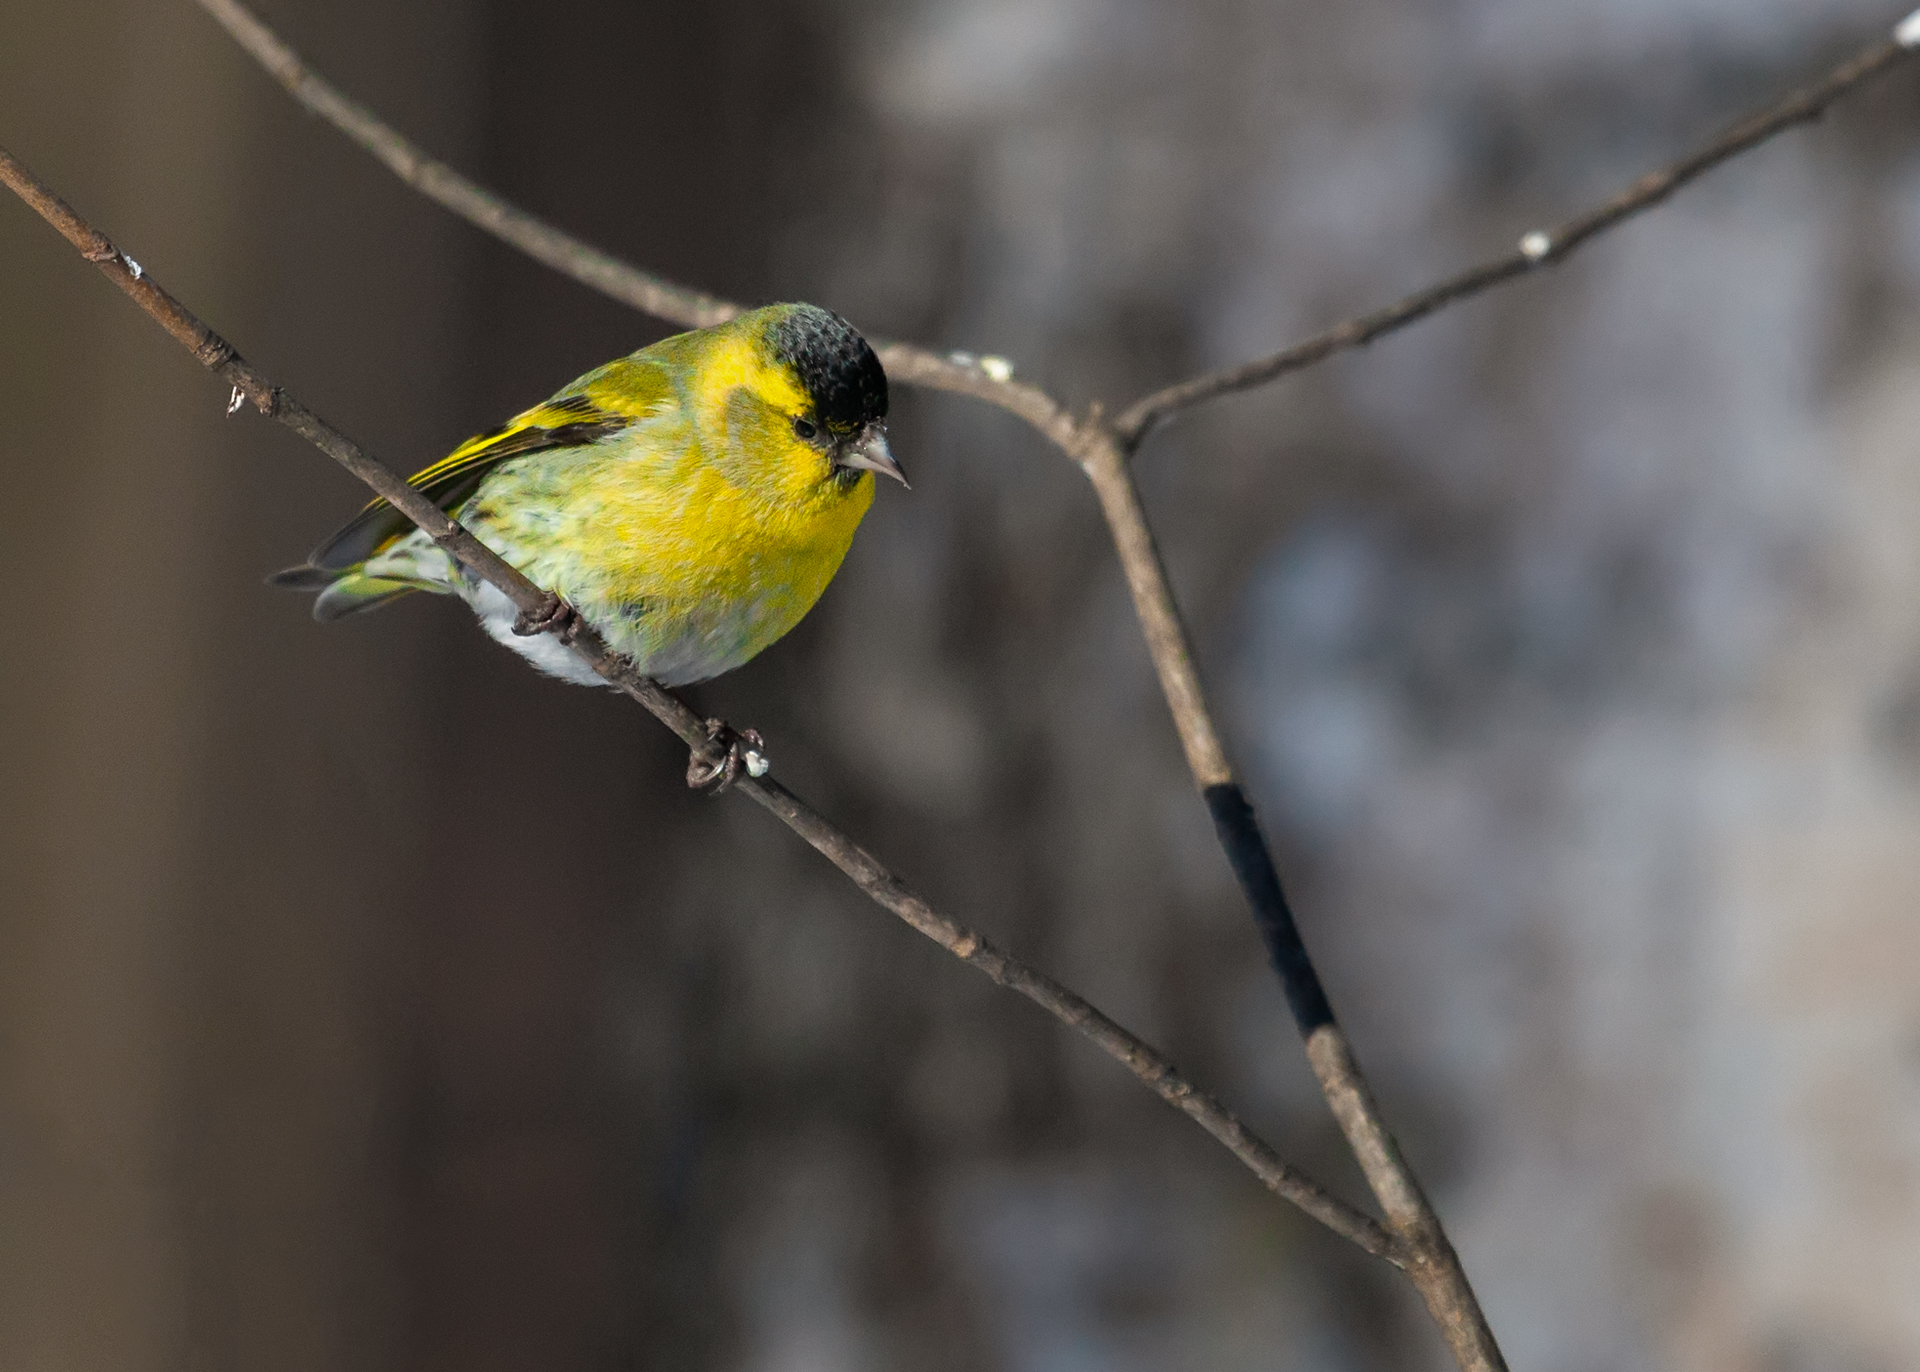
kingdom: Animalia
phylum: Chordata
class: Aves
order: Passeriformes
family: Fringillidae
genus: Spinus
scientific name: Spinus spinus
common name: Eurasian siskin
